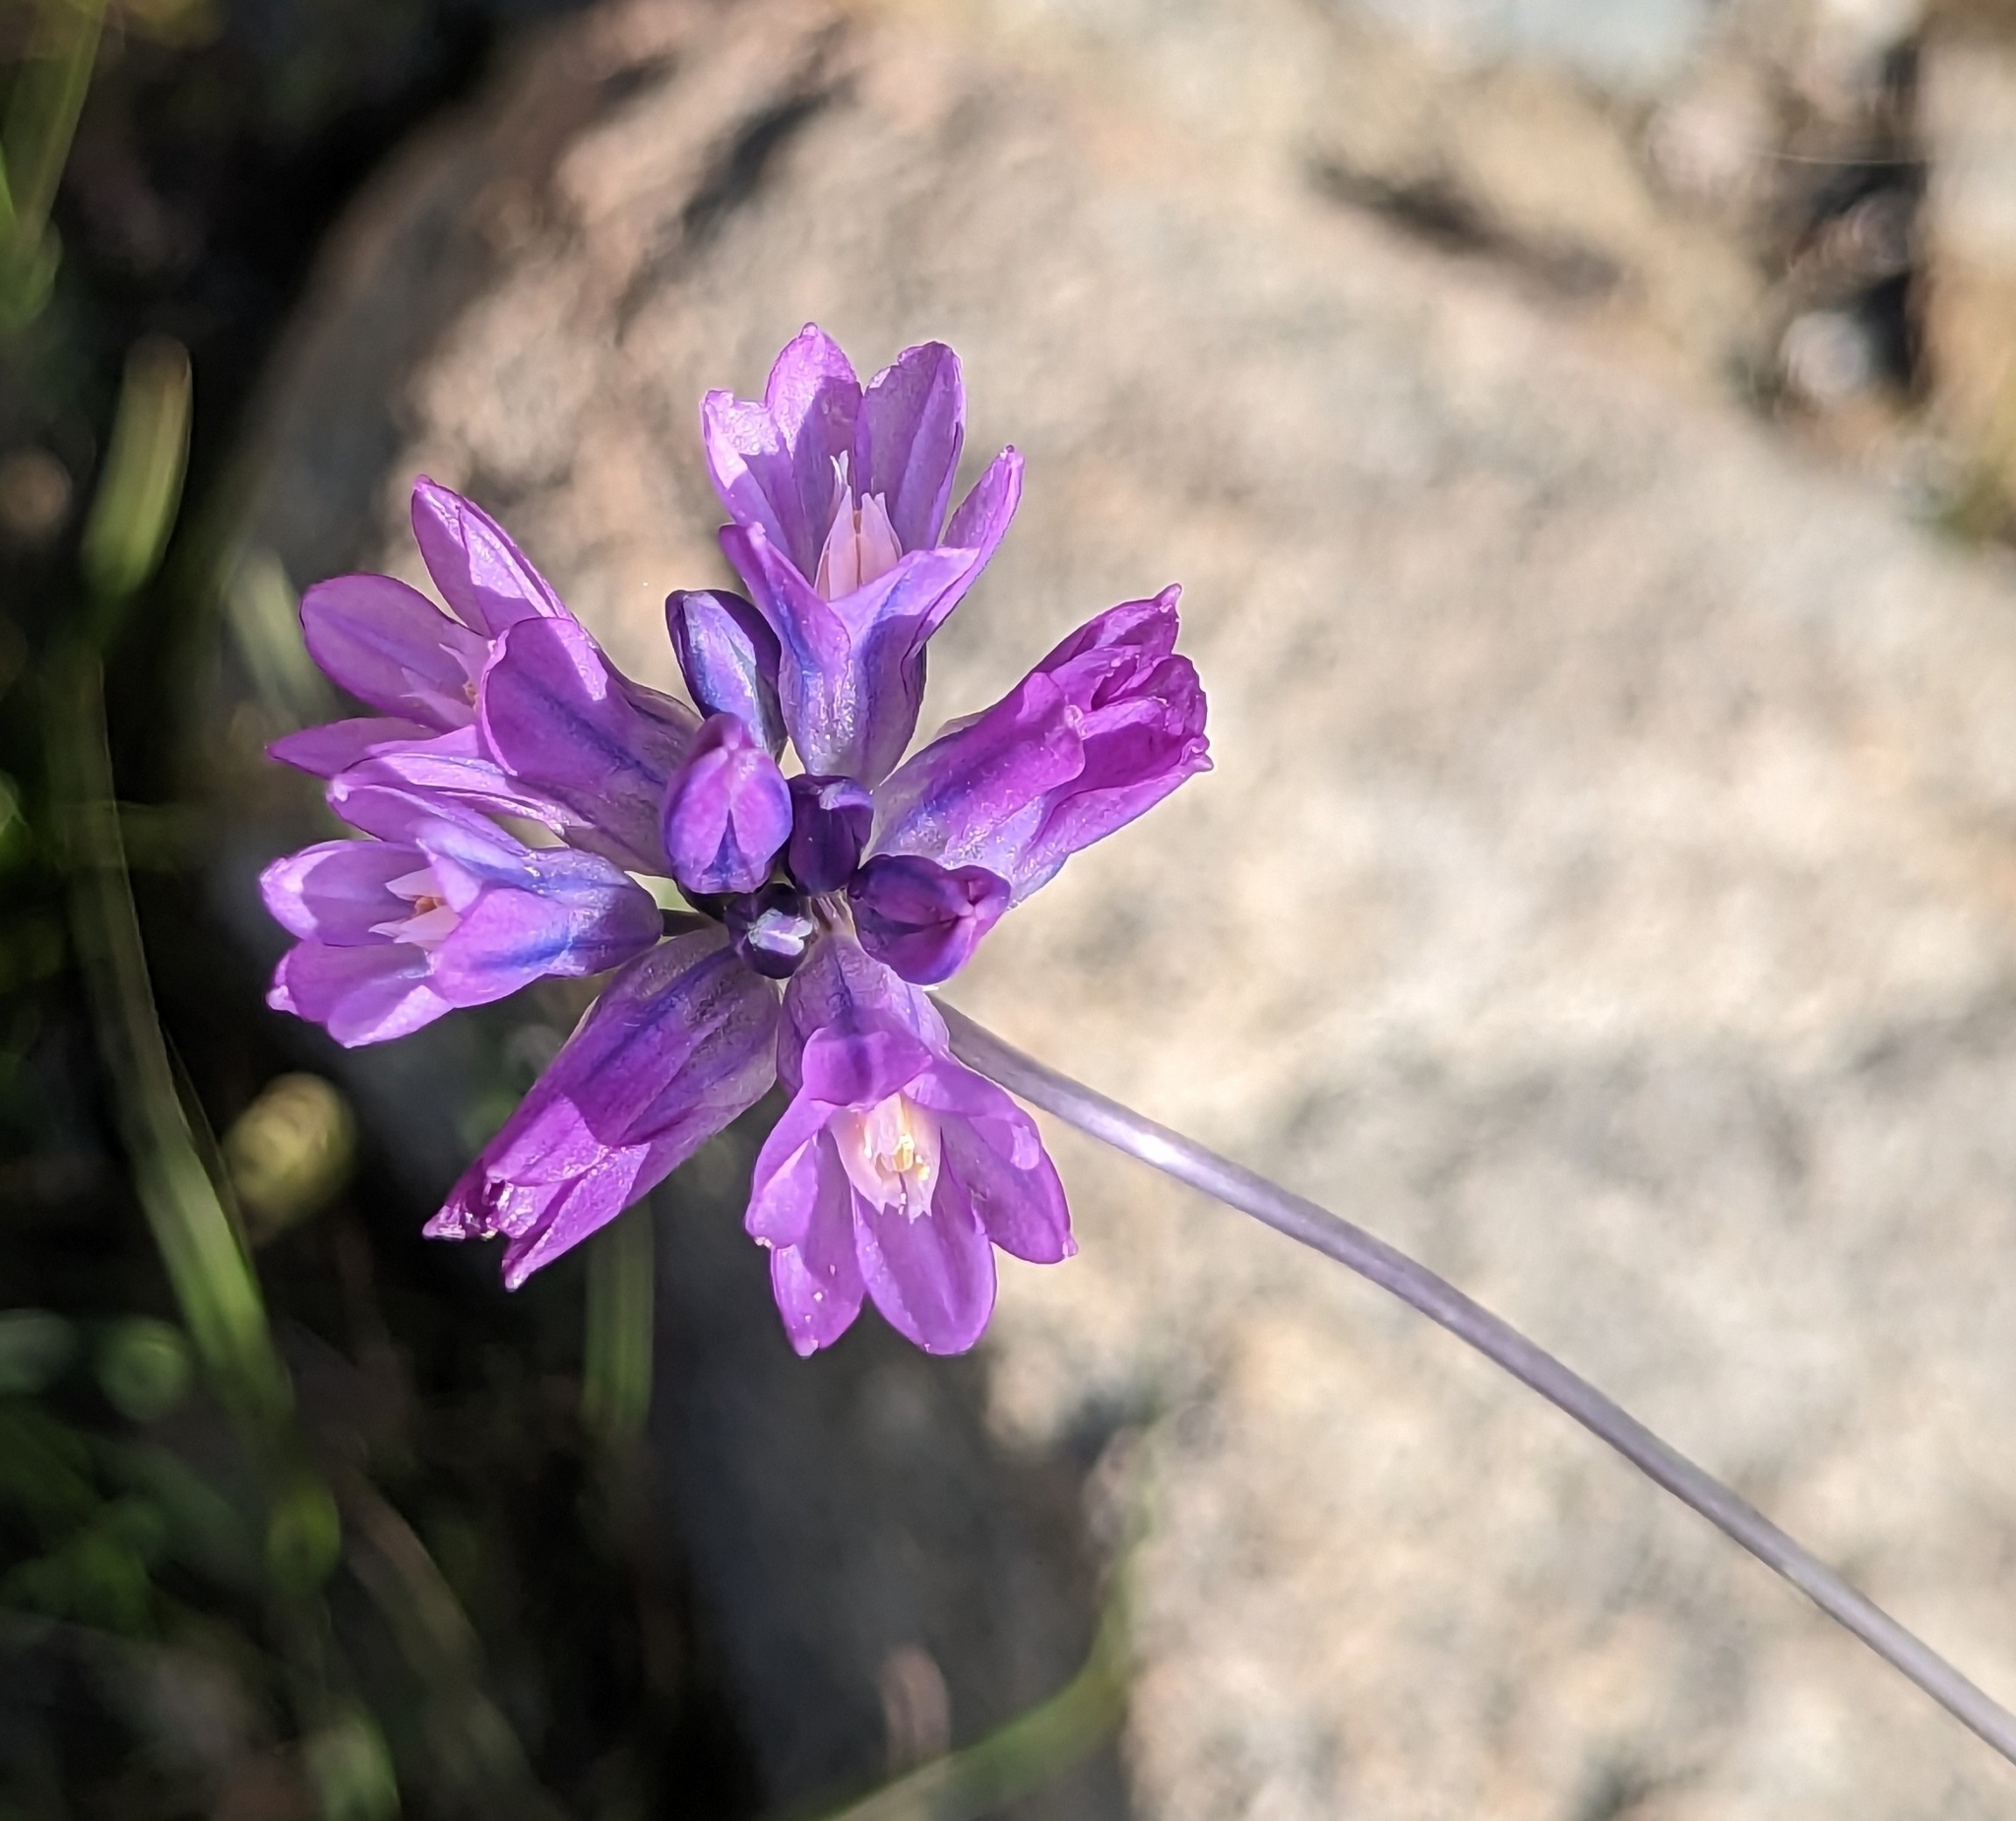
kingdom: Plantae
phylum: Tracheophyta
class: Liliopsida
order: Asparagales
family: Asparagaceae
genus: Dipterostemon
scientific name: Dipterostemon capitatus
